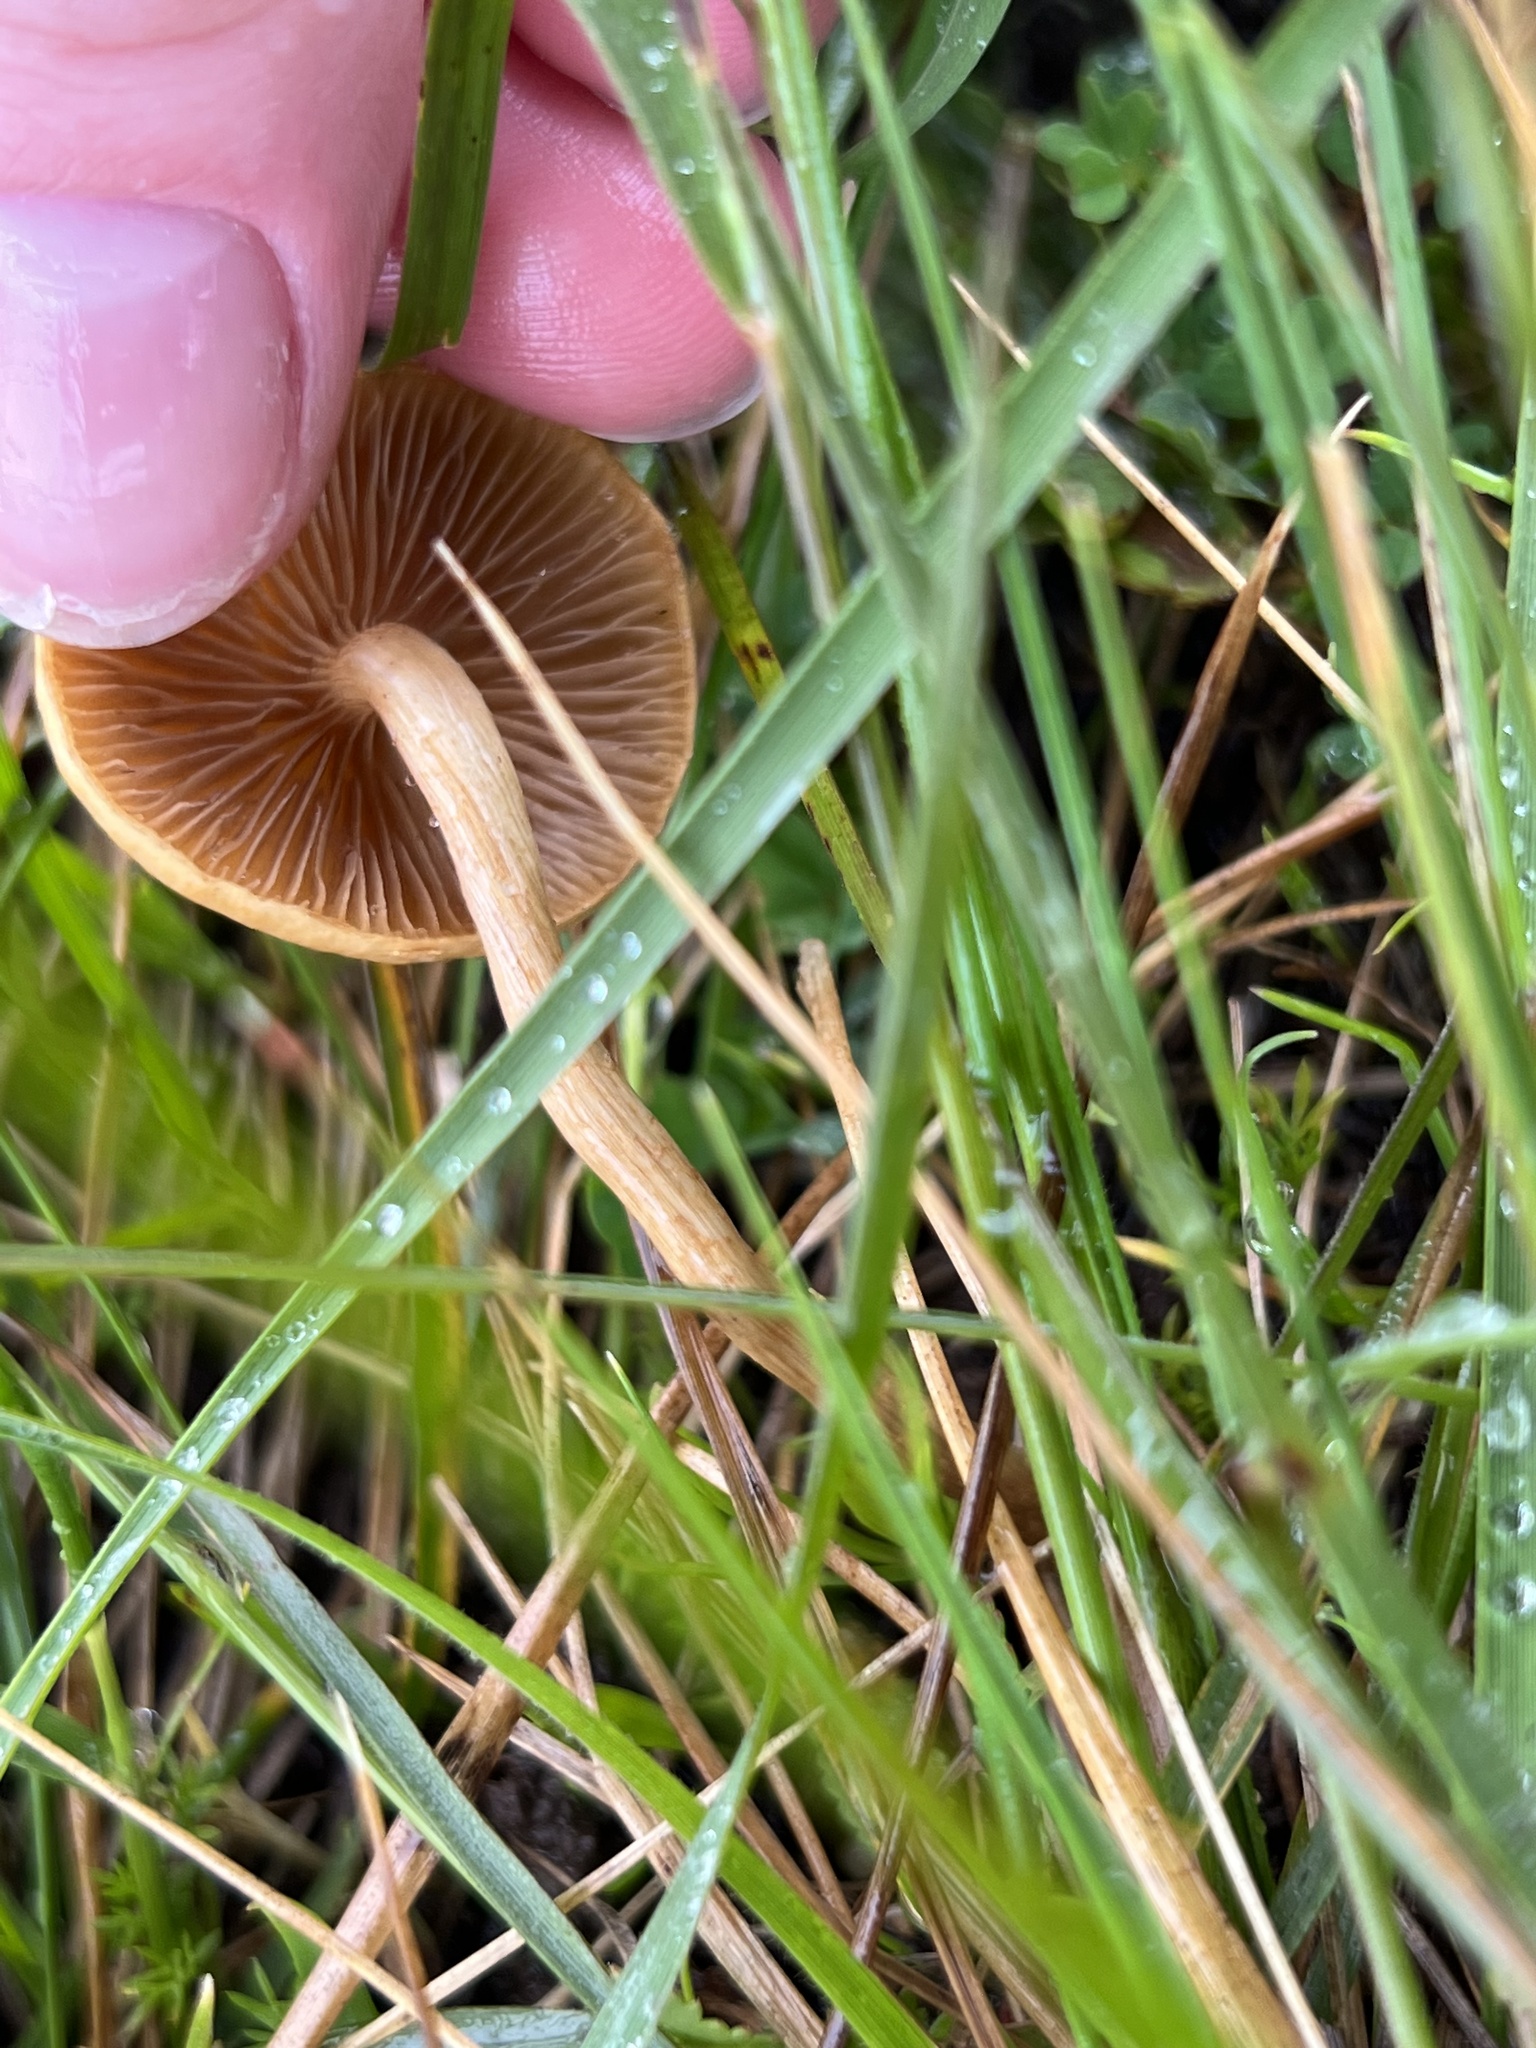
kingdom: Fungi
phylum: Basidiomycota
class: Agaricomycetes
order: Agaricales
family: Strophariaceae
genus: Agrocybe
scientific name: Agrocybe pediades
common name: Common fieldcap
